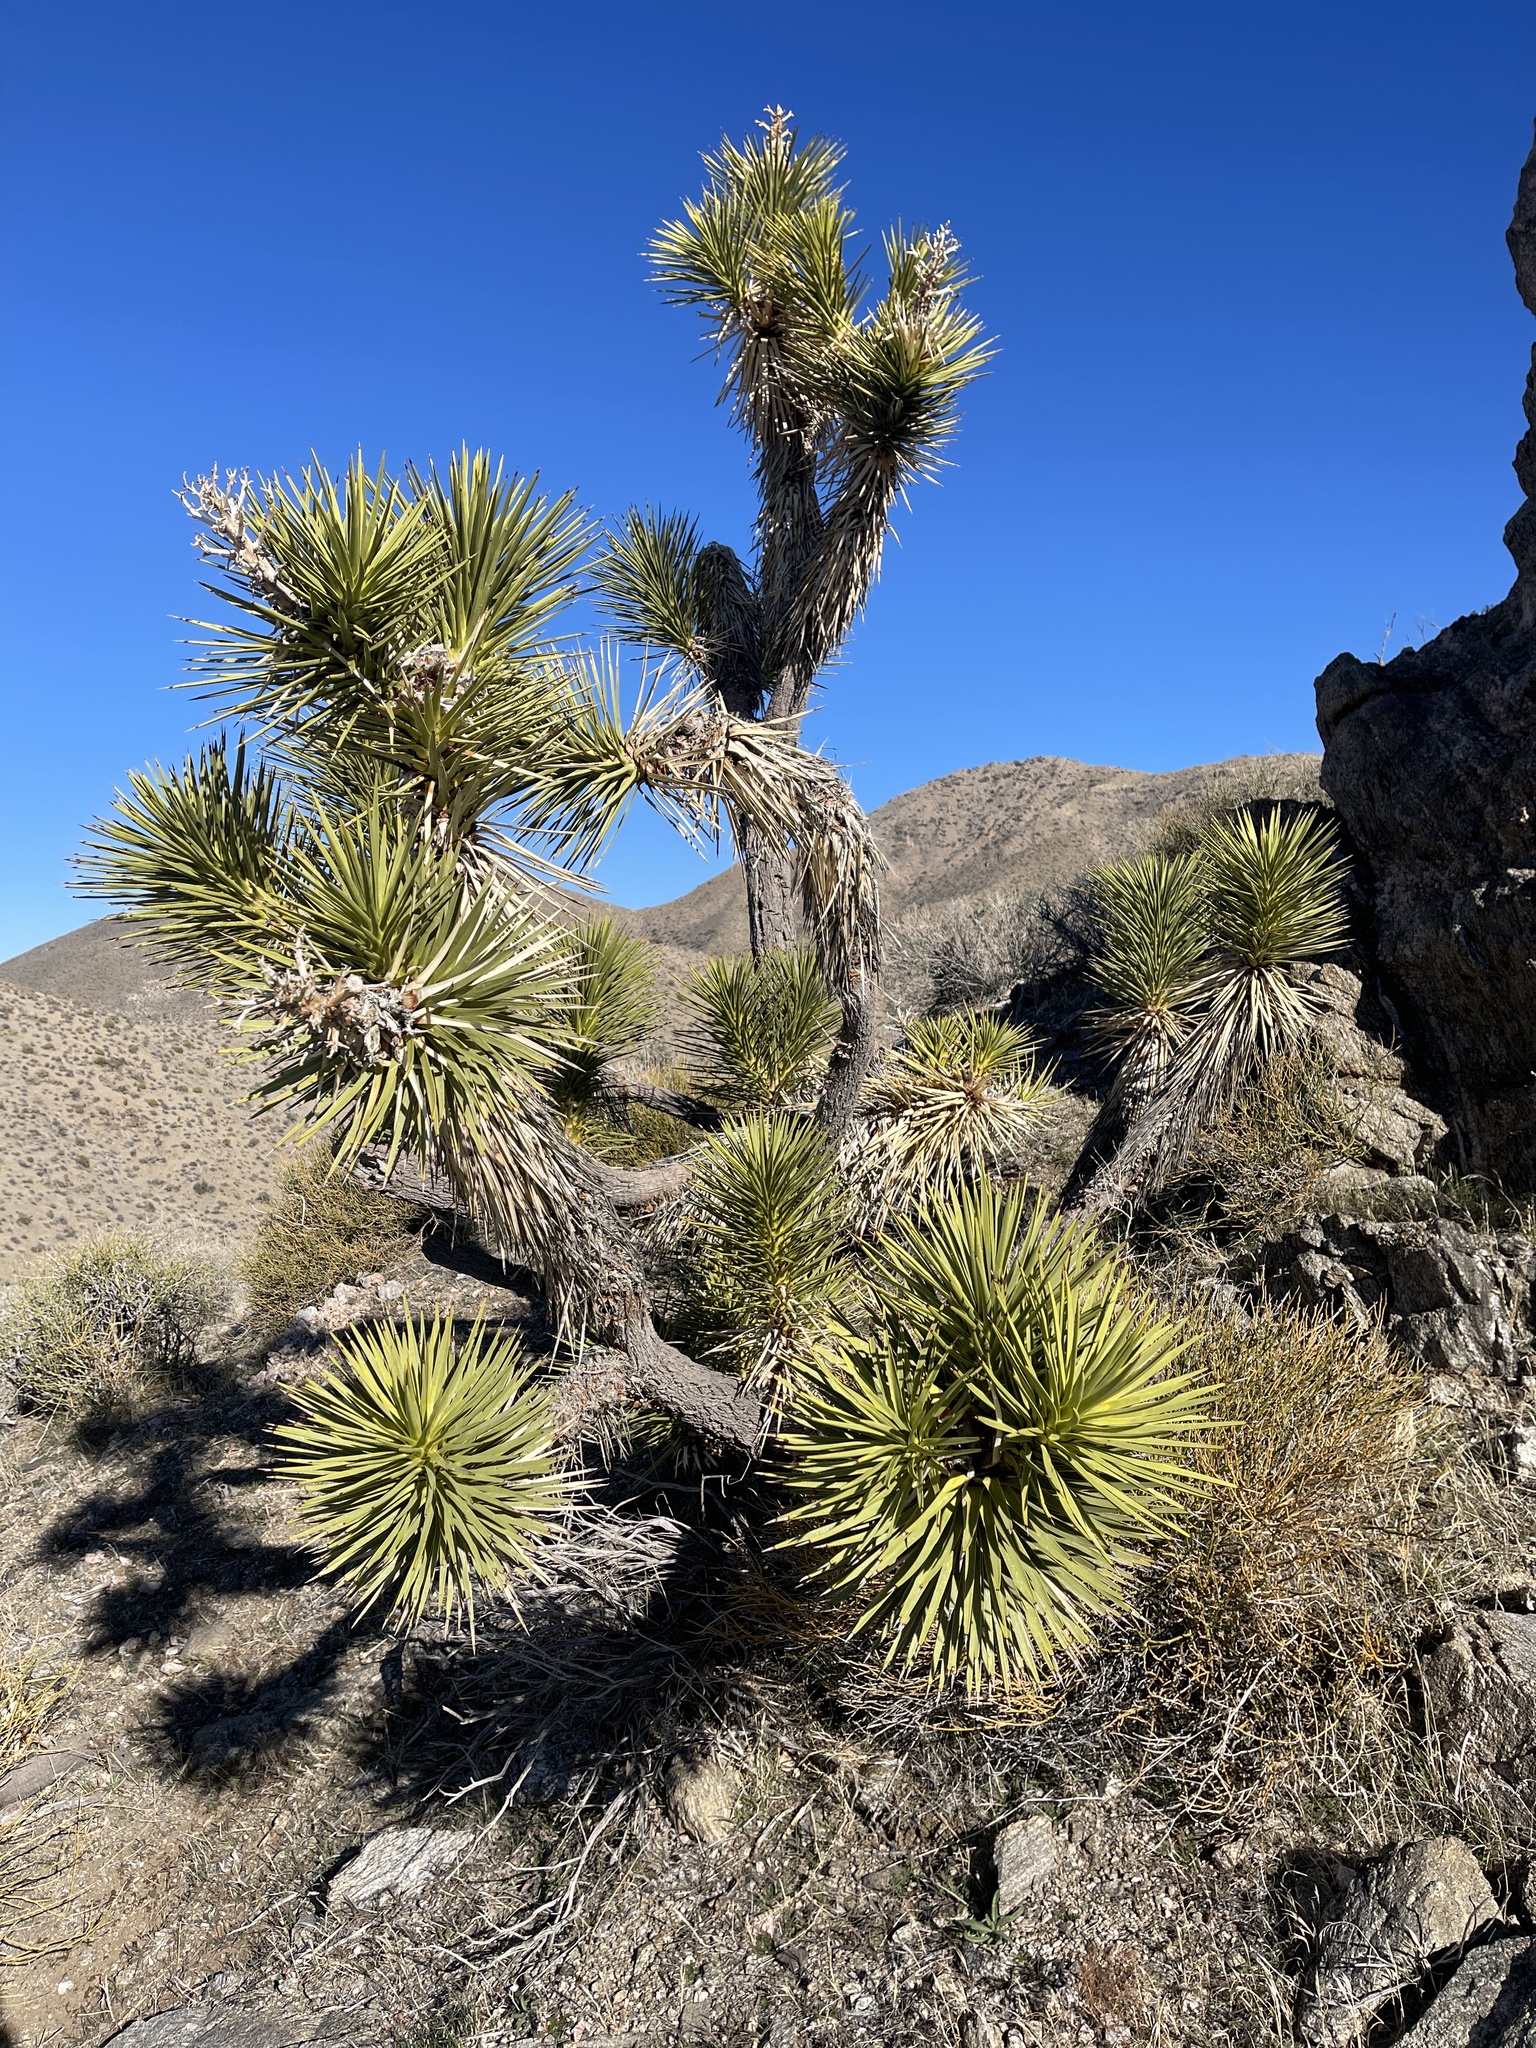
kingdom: Plantae
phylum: Tracheophyta
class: Liliopsida
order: Asparagales
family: Asparagaceae
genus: Yucca
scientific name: Yucca brevifolia
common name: Joshua tree
